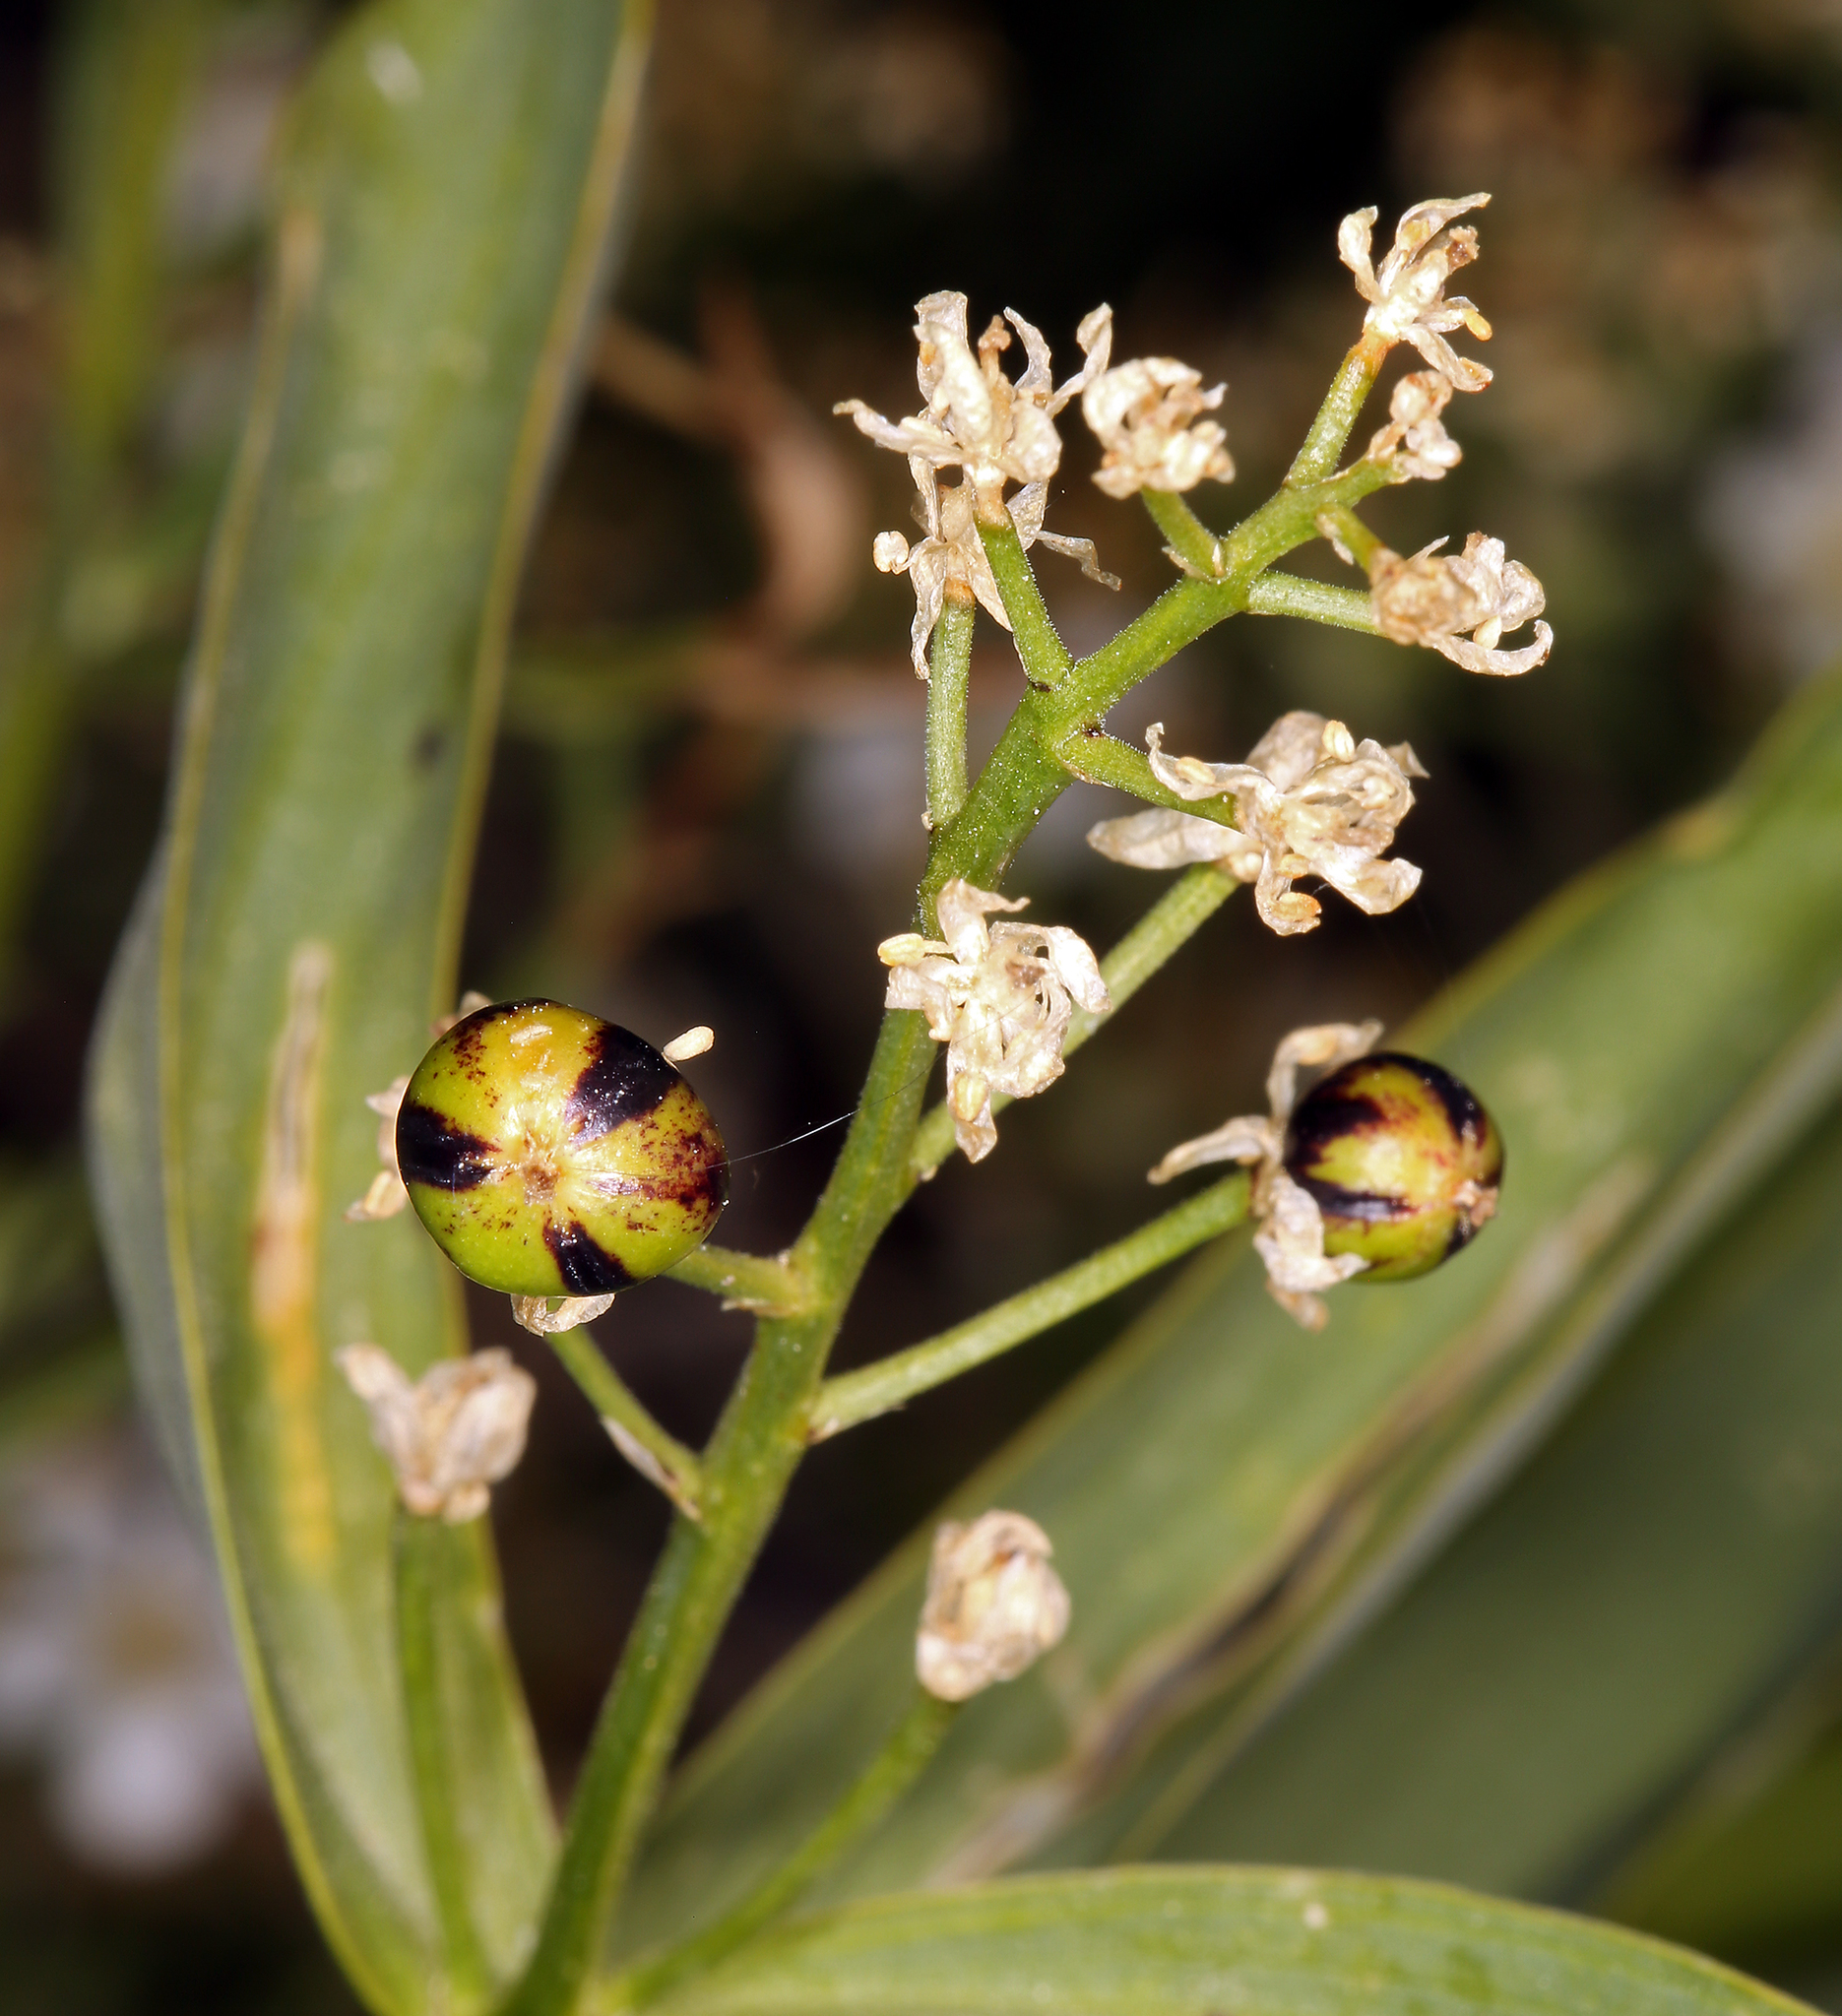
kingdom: Plantae
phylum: Tracheophyta
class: Liliopsida
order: Asparagales
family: Asparagaceae
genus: Maianthemum
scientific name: Maianthemum stellatum
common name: Little false solomon's seal
